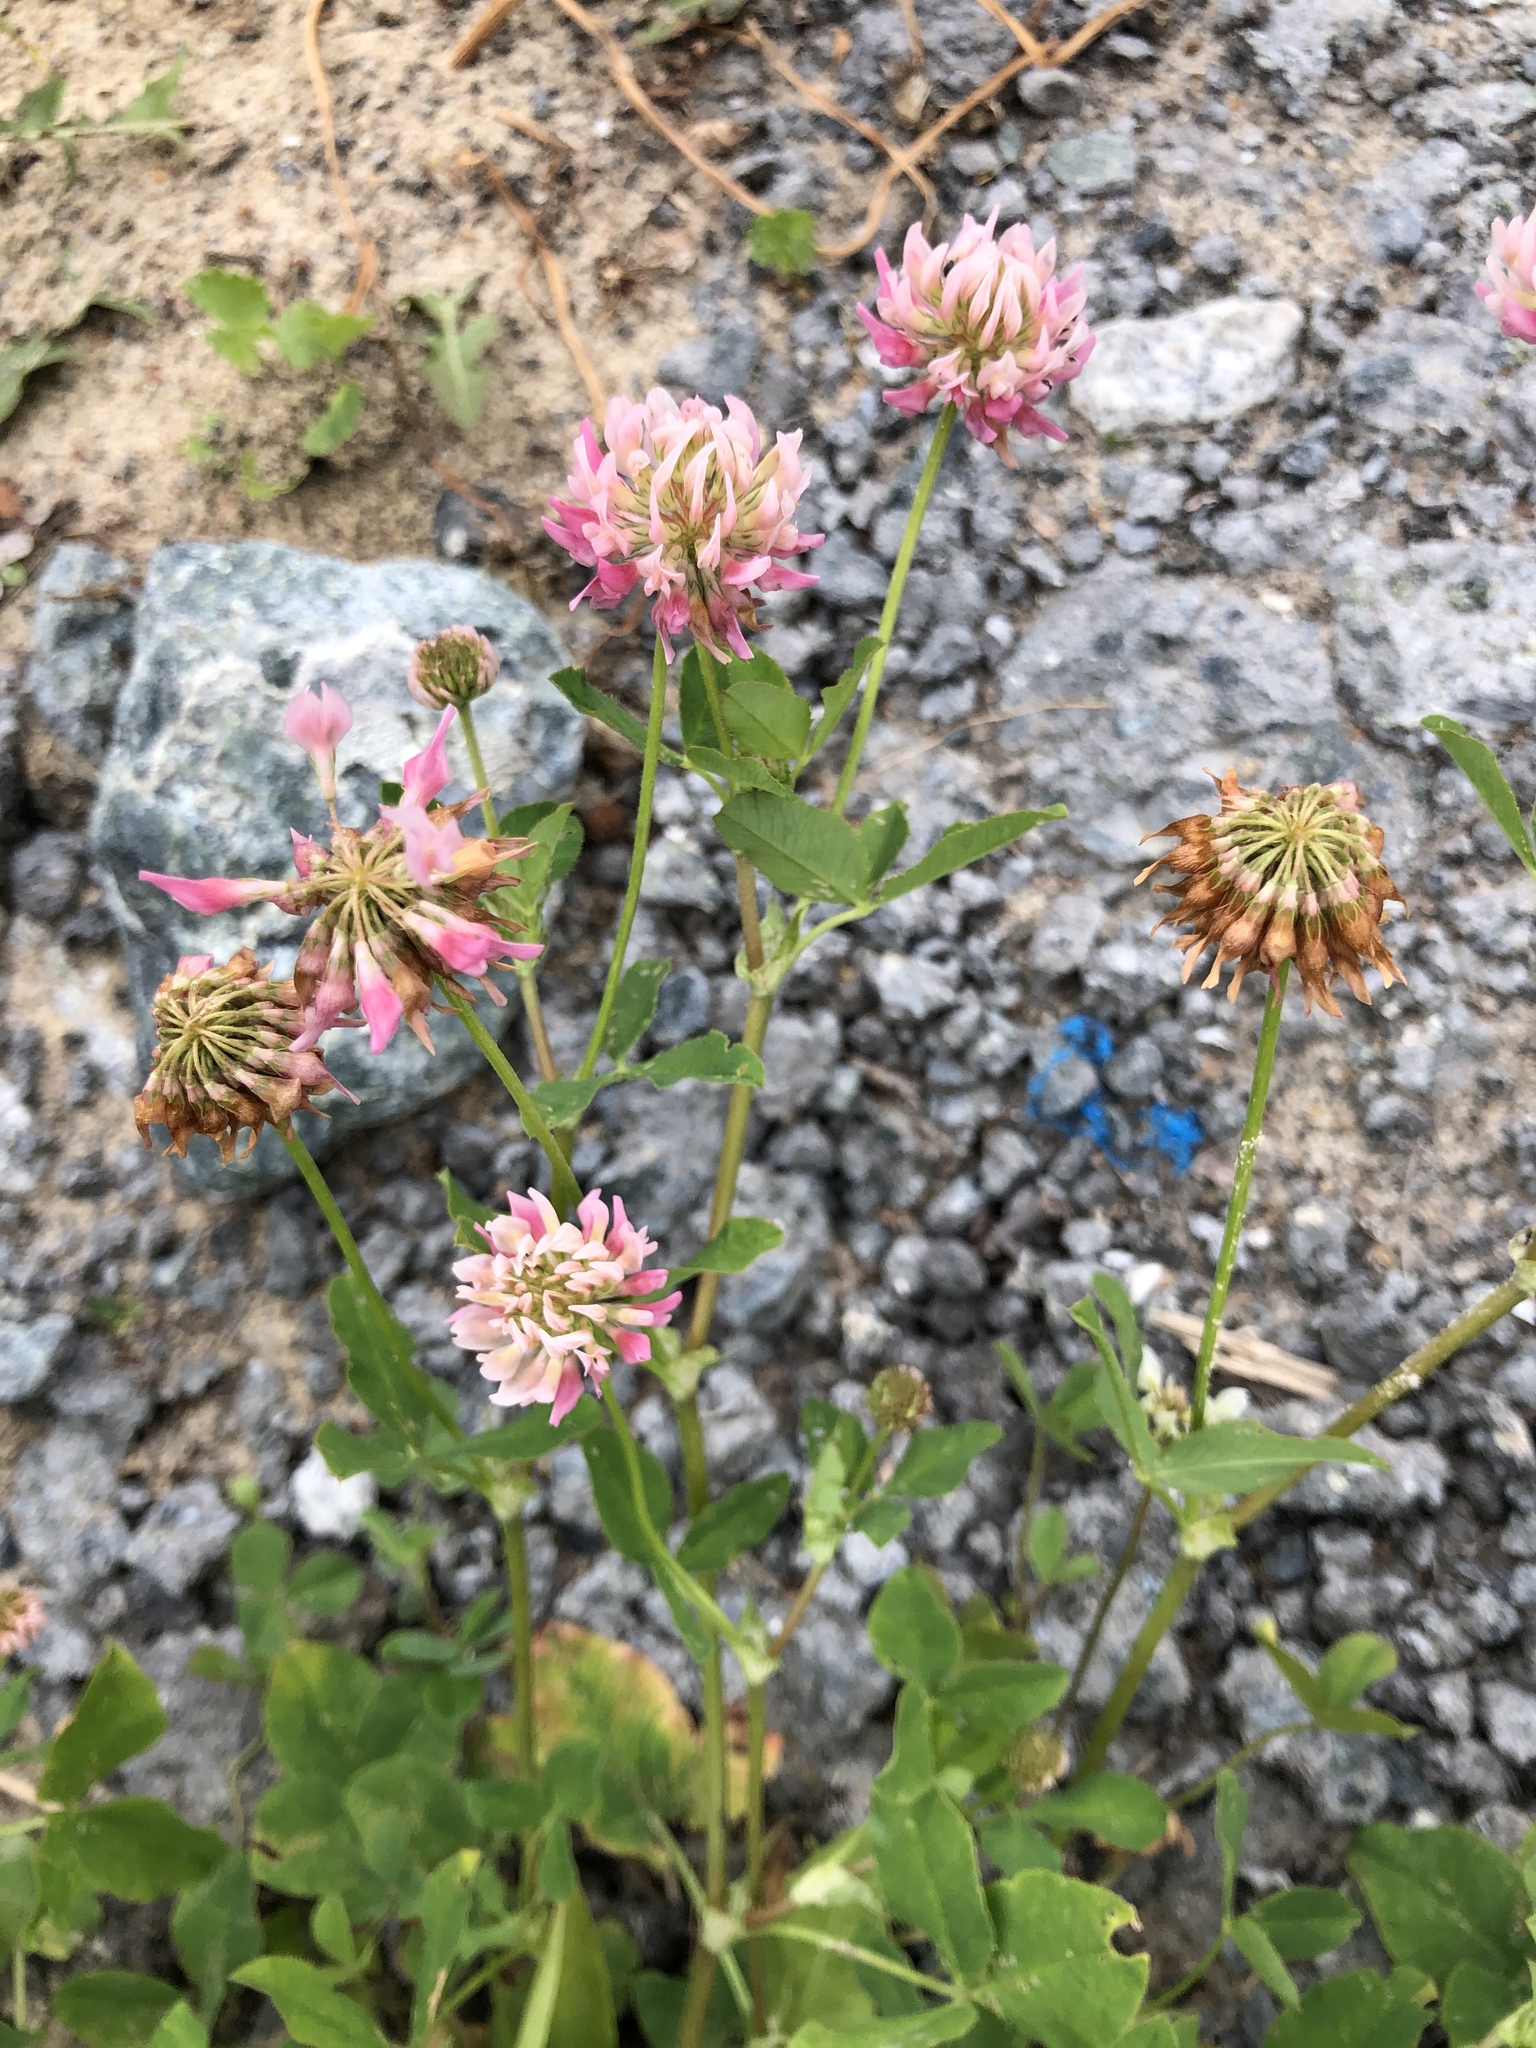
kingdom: Plantae
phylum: Tracheophyta
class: Magnoliopsida
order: Fabales
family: Fabaceae
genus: Trifolium
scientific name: Trifolium hybridum
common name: Alsike clover
